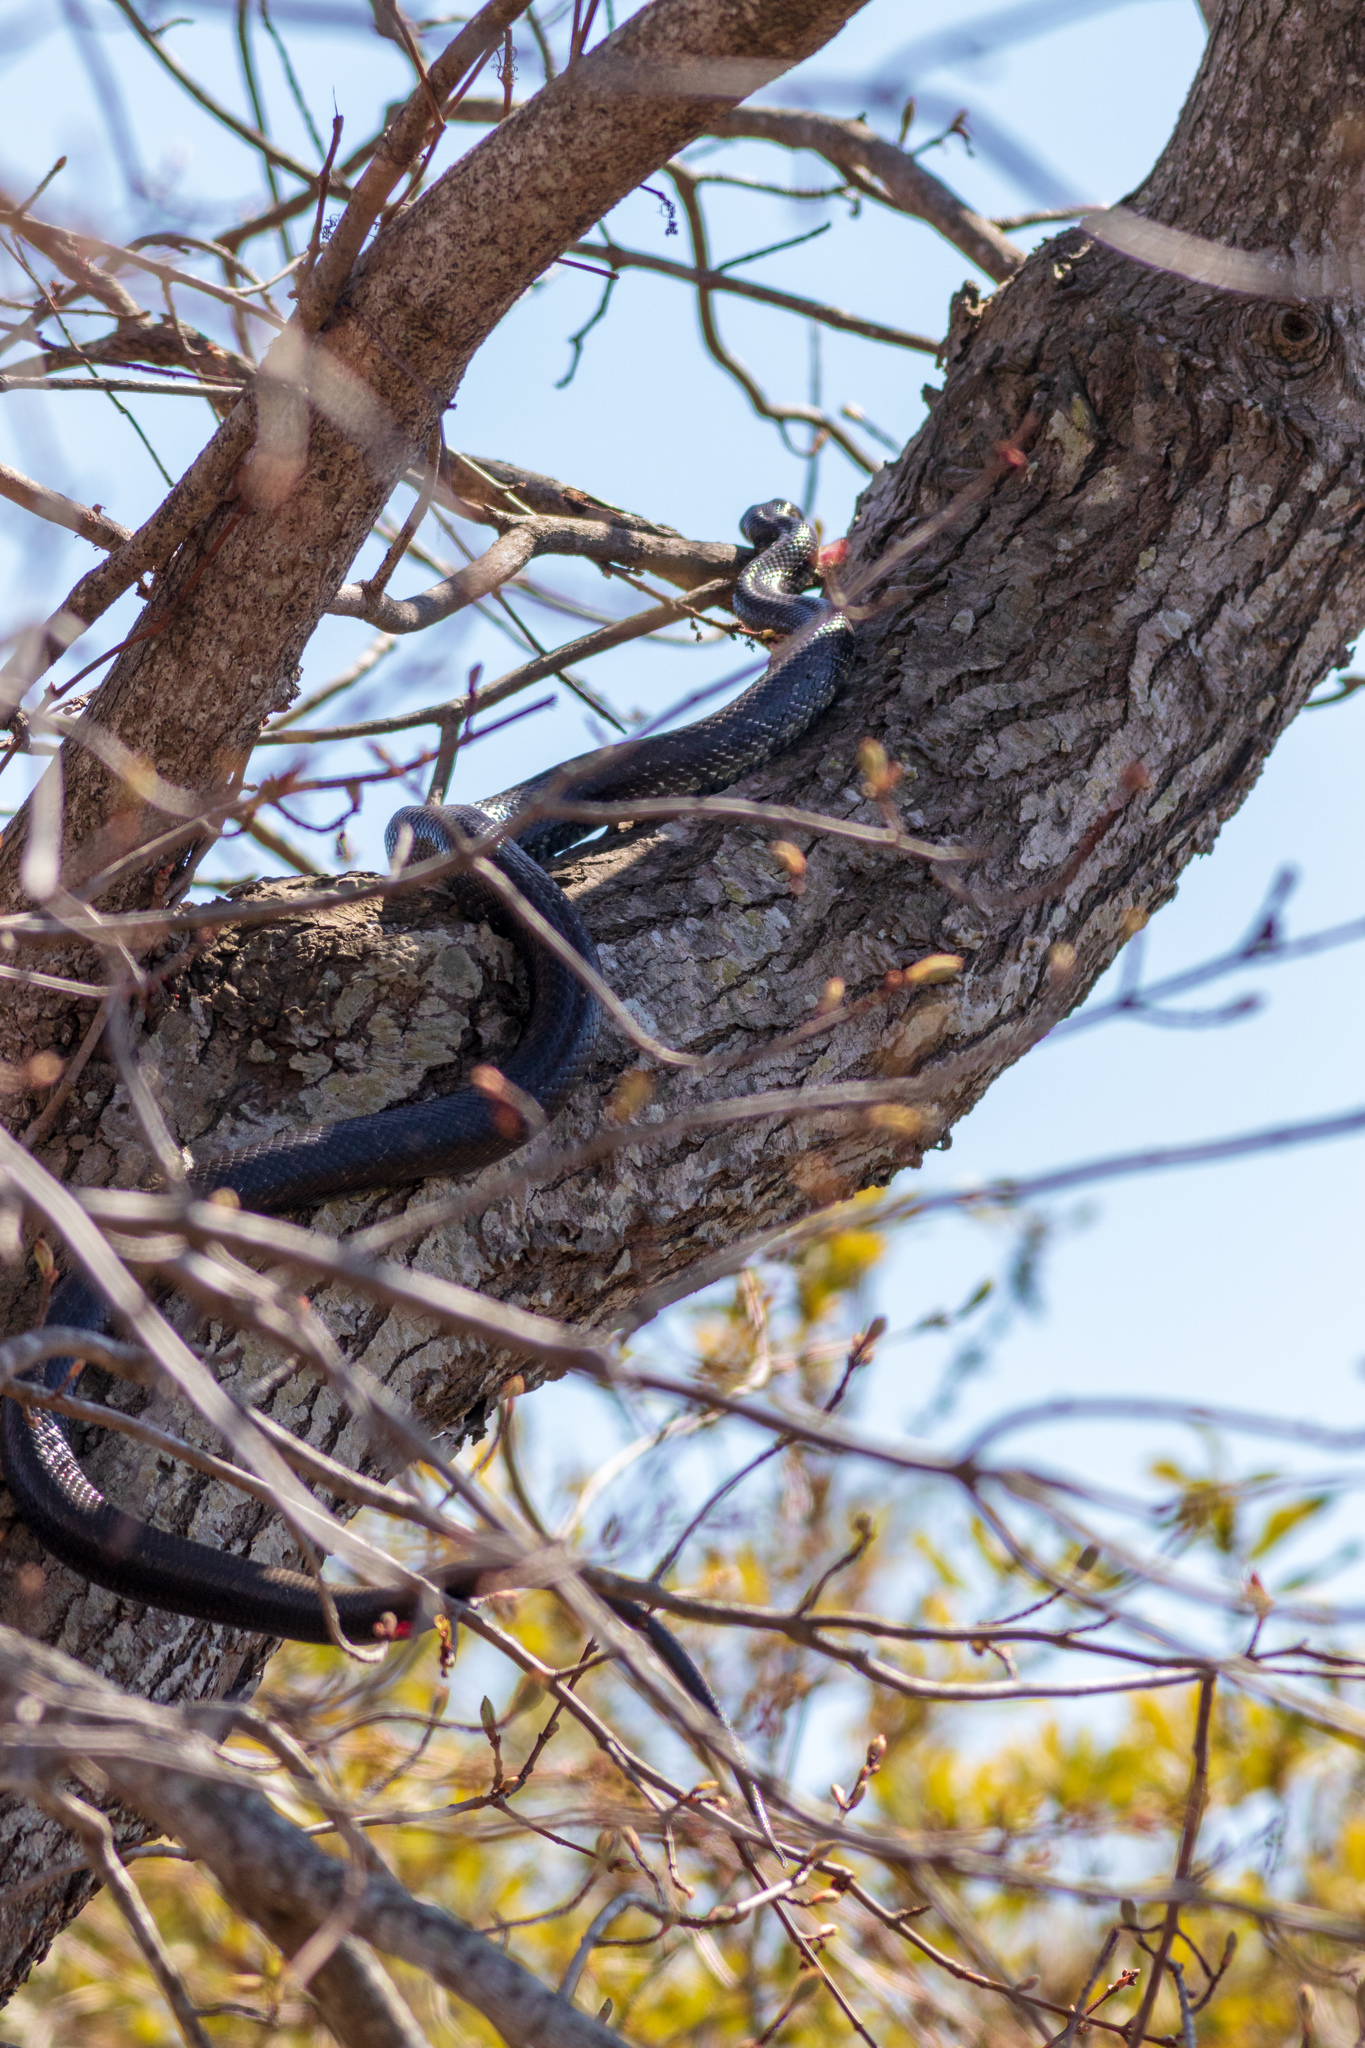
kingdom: Animalia
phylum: Chordata
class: Squamata
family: Colubridae
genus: Pantherophis
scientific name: Pantherophis alleghaniensis
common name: Eastern rat snake
